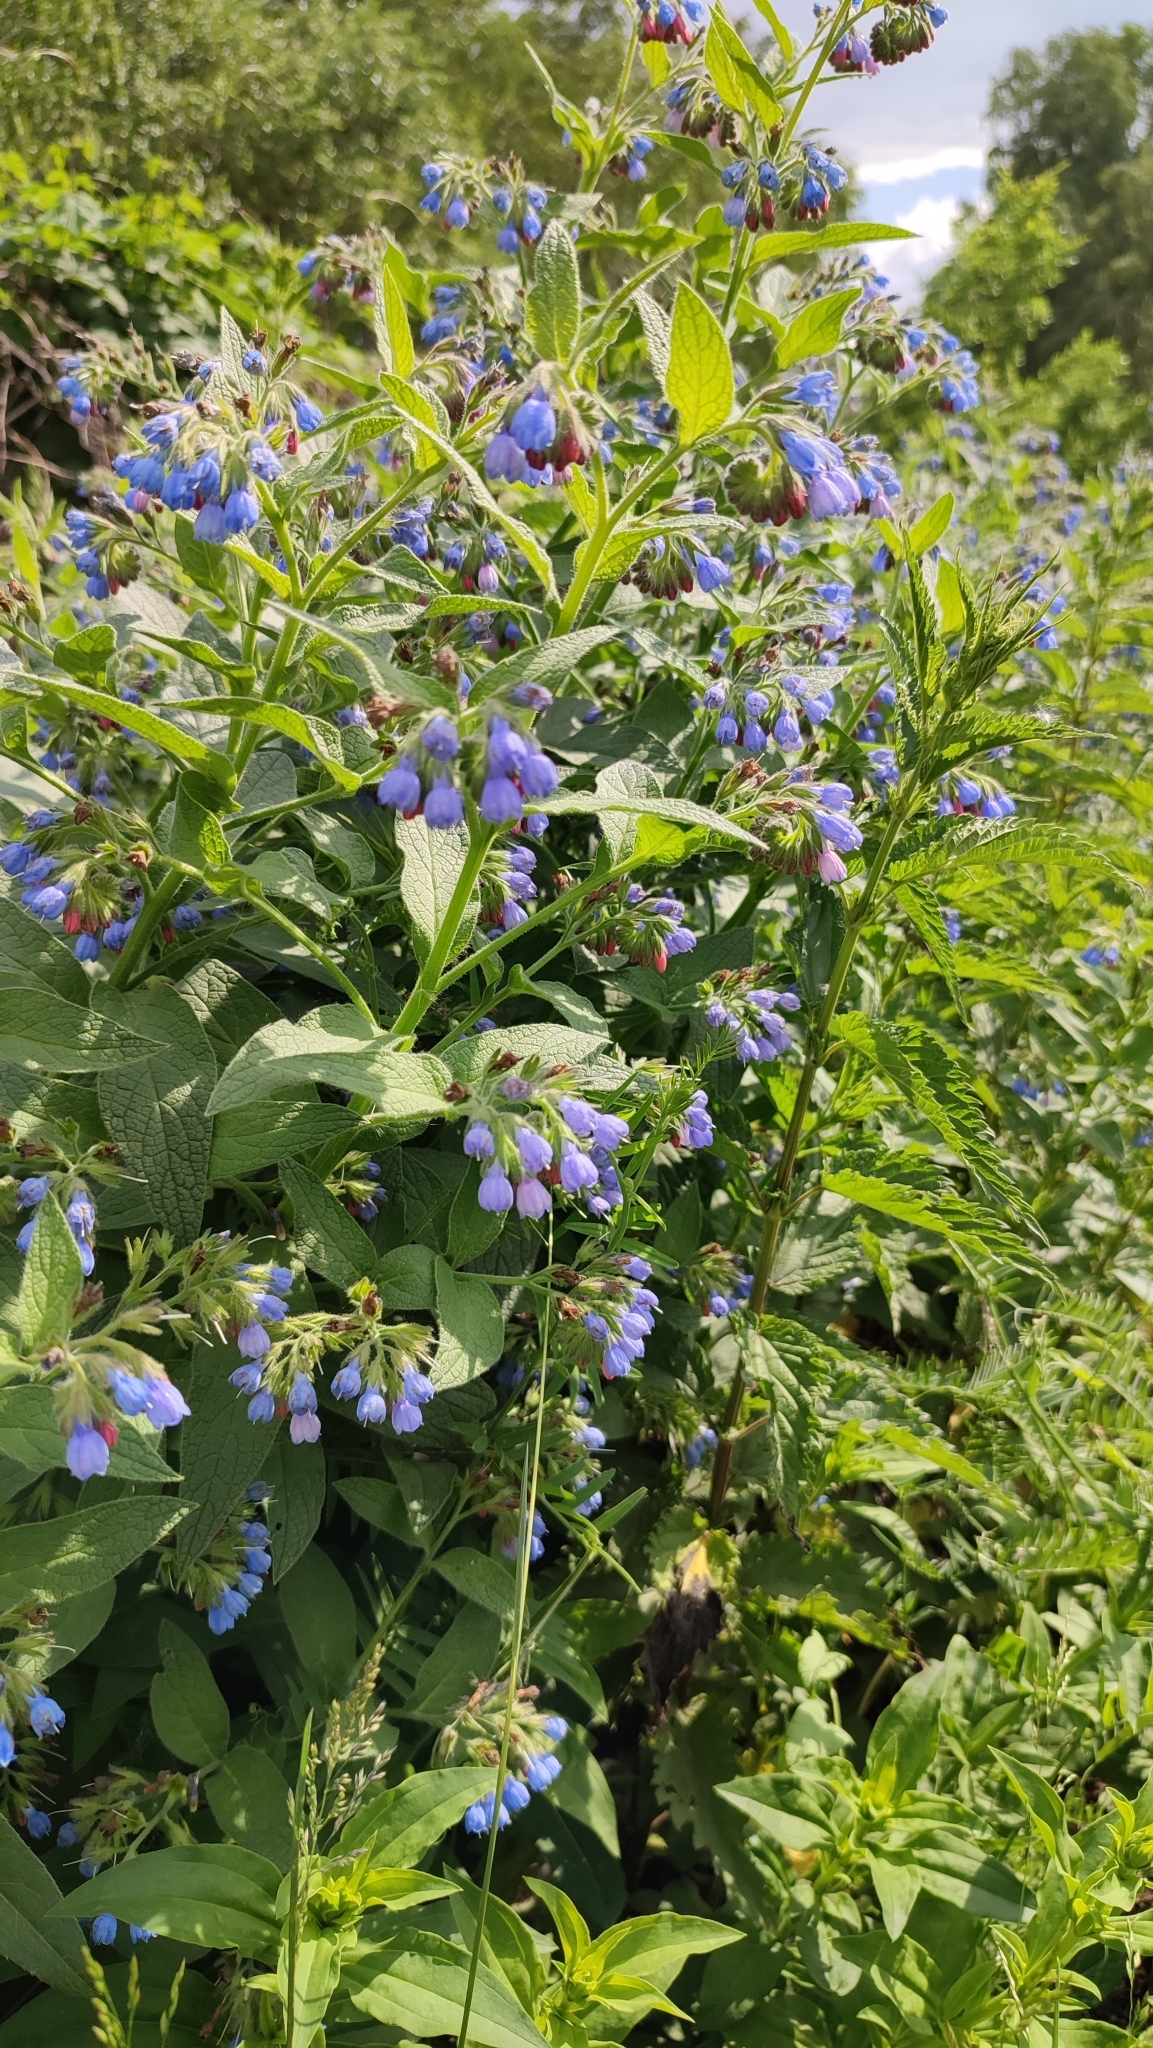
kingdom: Plantae
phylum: Tracheophyta
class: Magnoliopsida
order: Boraginales
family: Boraginaceae
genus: Symphytum
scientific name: Symphytum caucasicum
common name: Caucasian comfrey
